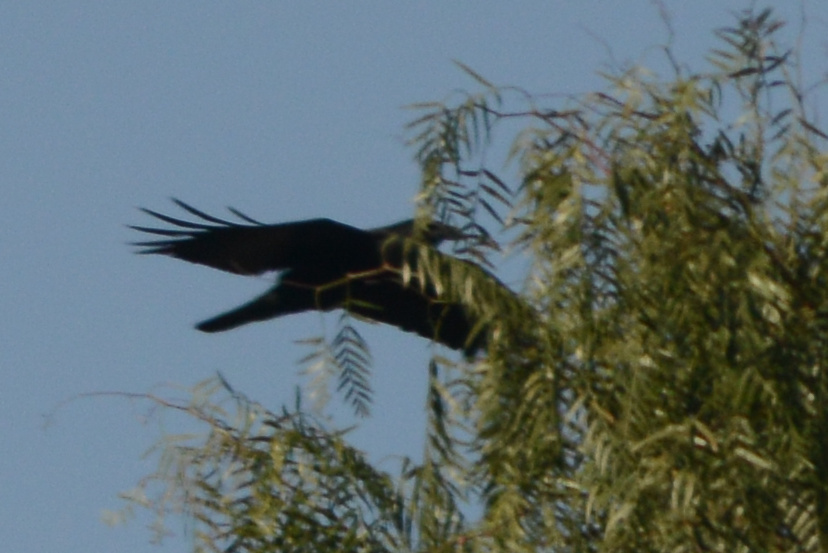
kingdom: Animalia
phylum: Chordata
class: Aves
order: Passeriformes
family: Corvidae
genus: Corvus
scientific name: Corvus brachyrhynchos
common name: American crow
